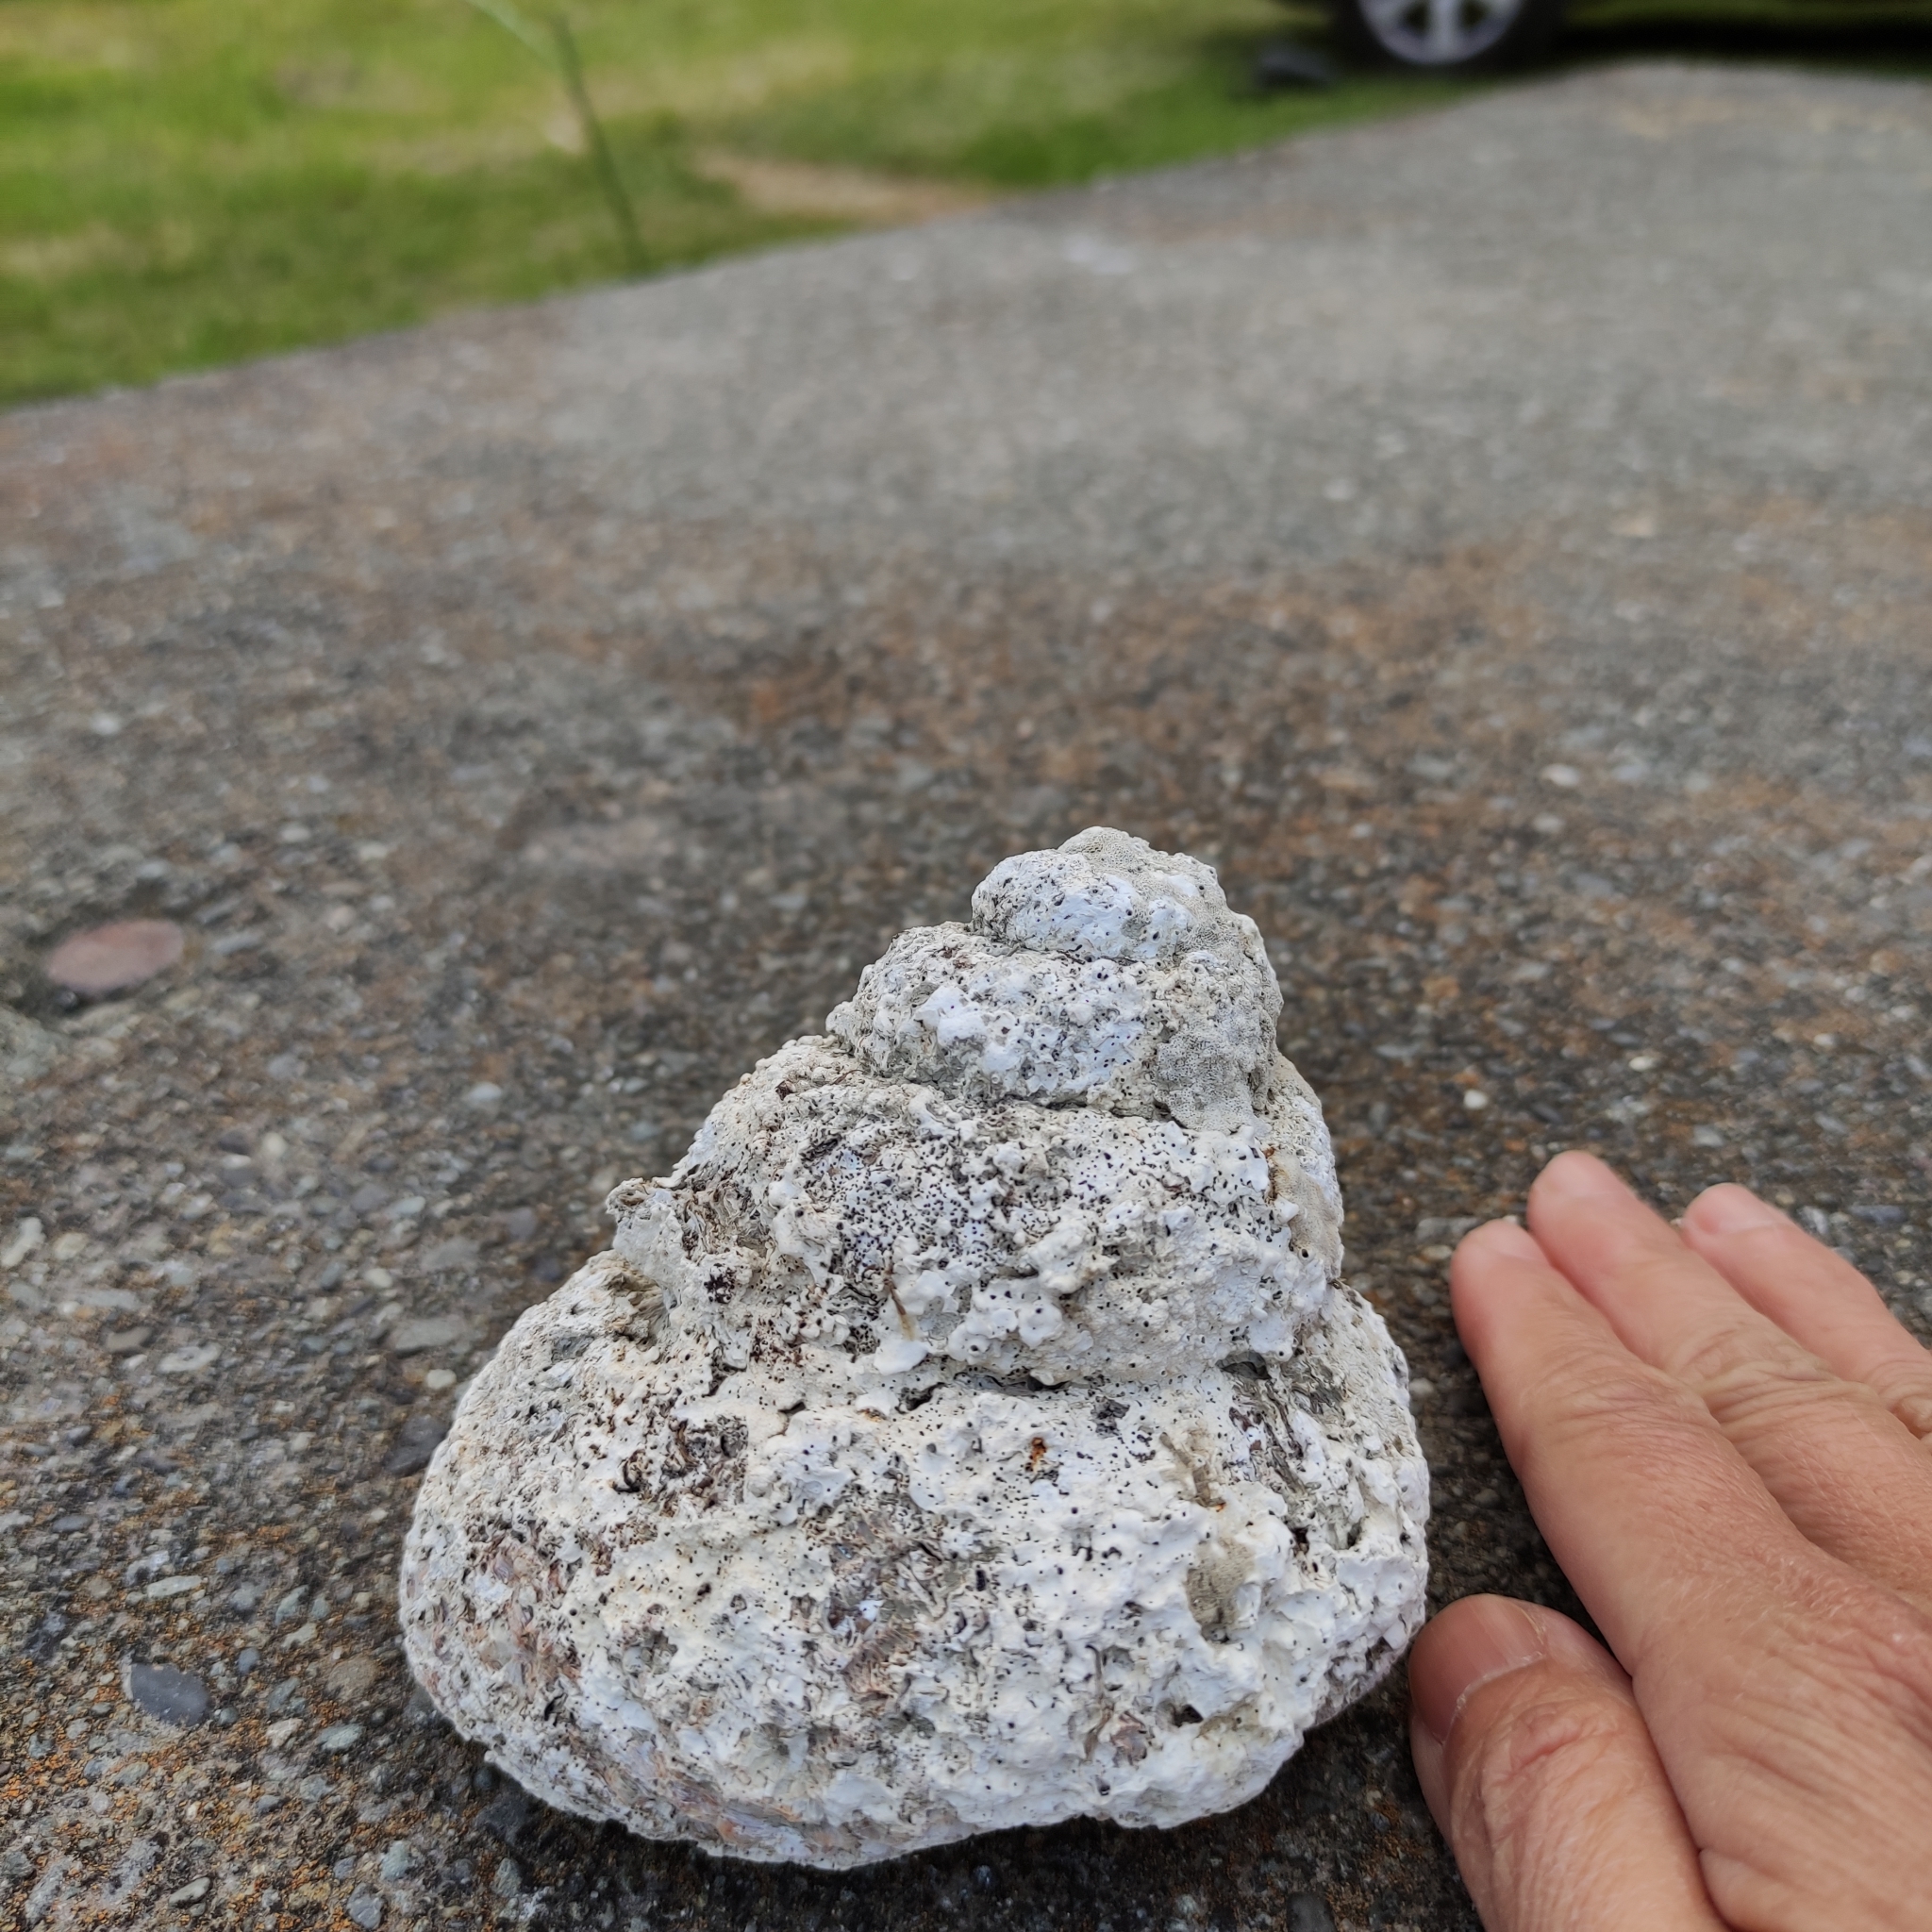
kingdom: Animalia
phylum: Mollusca
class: Gastropoda
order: Trochida
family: Turbinidae
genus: Cookia
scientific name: Cookia sulcata
